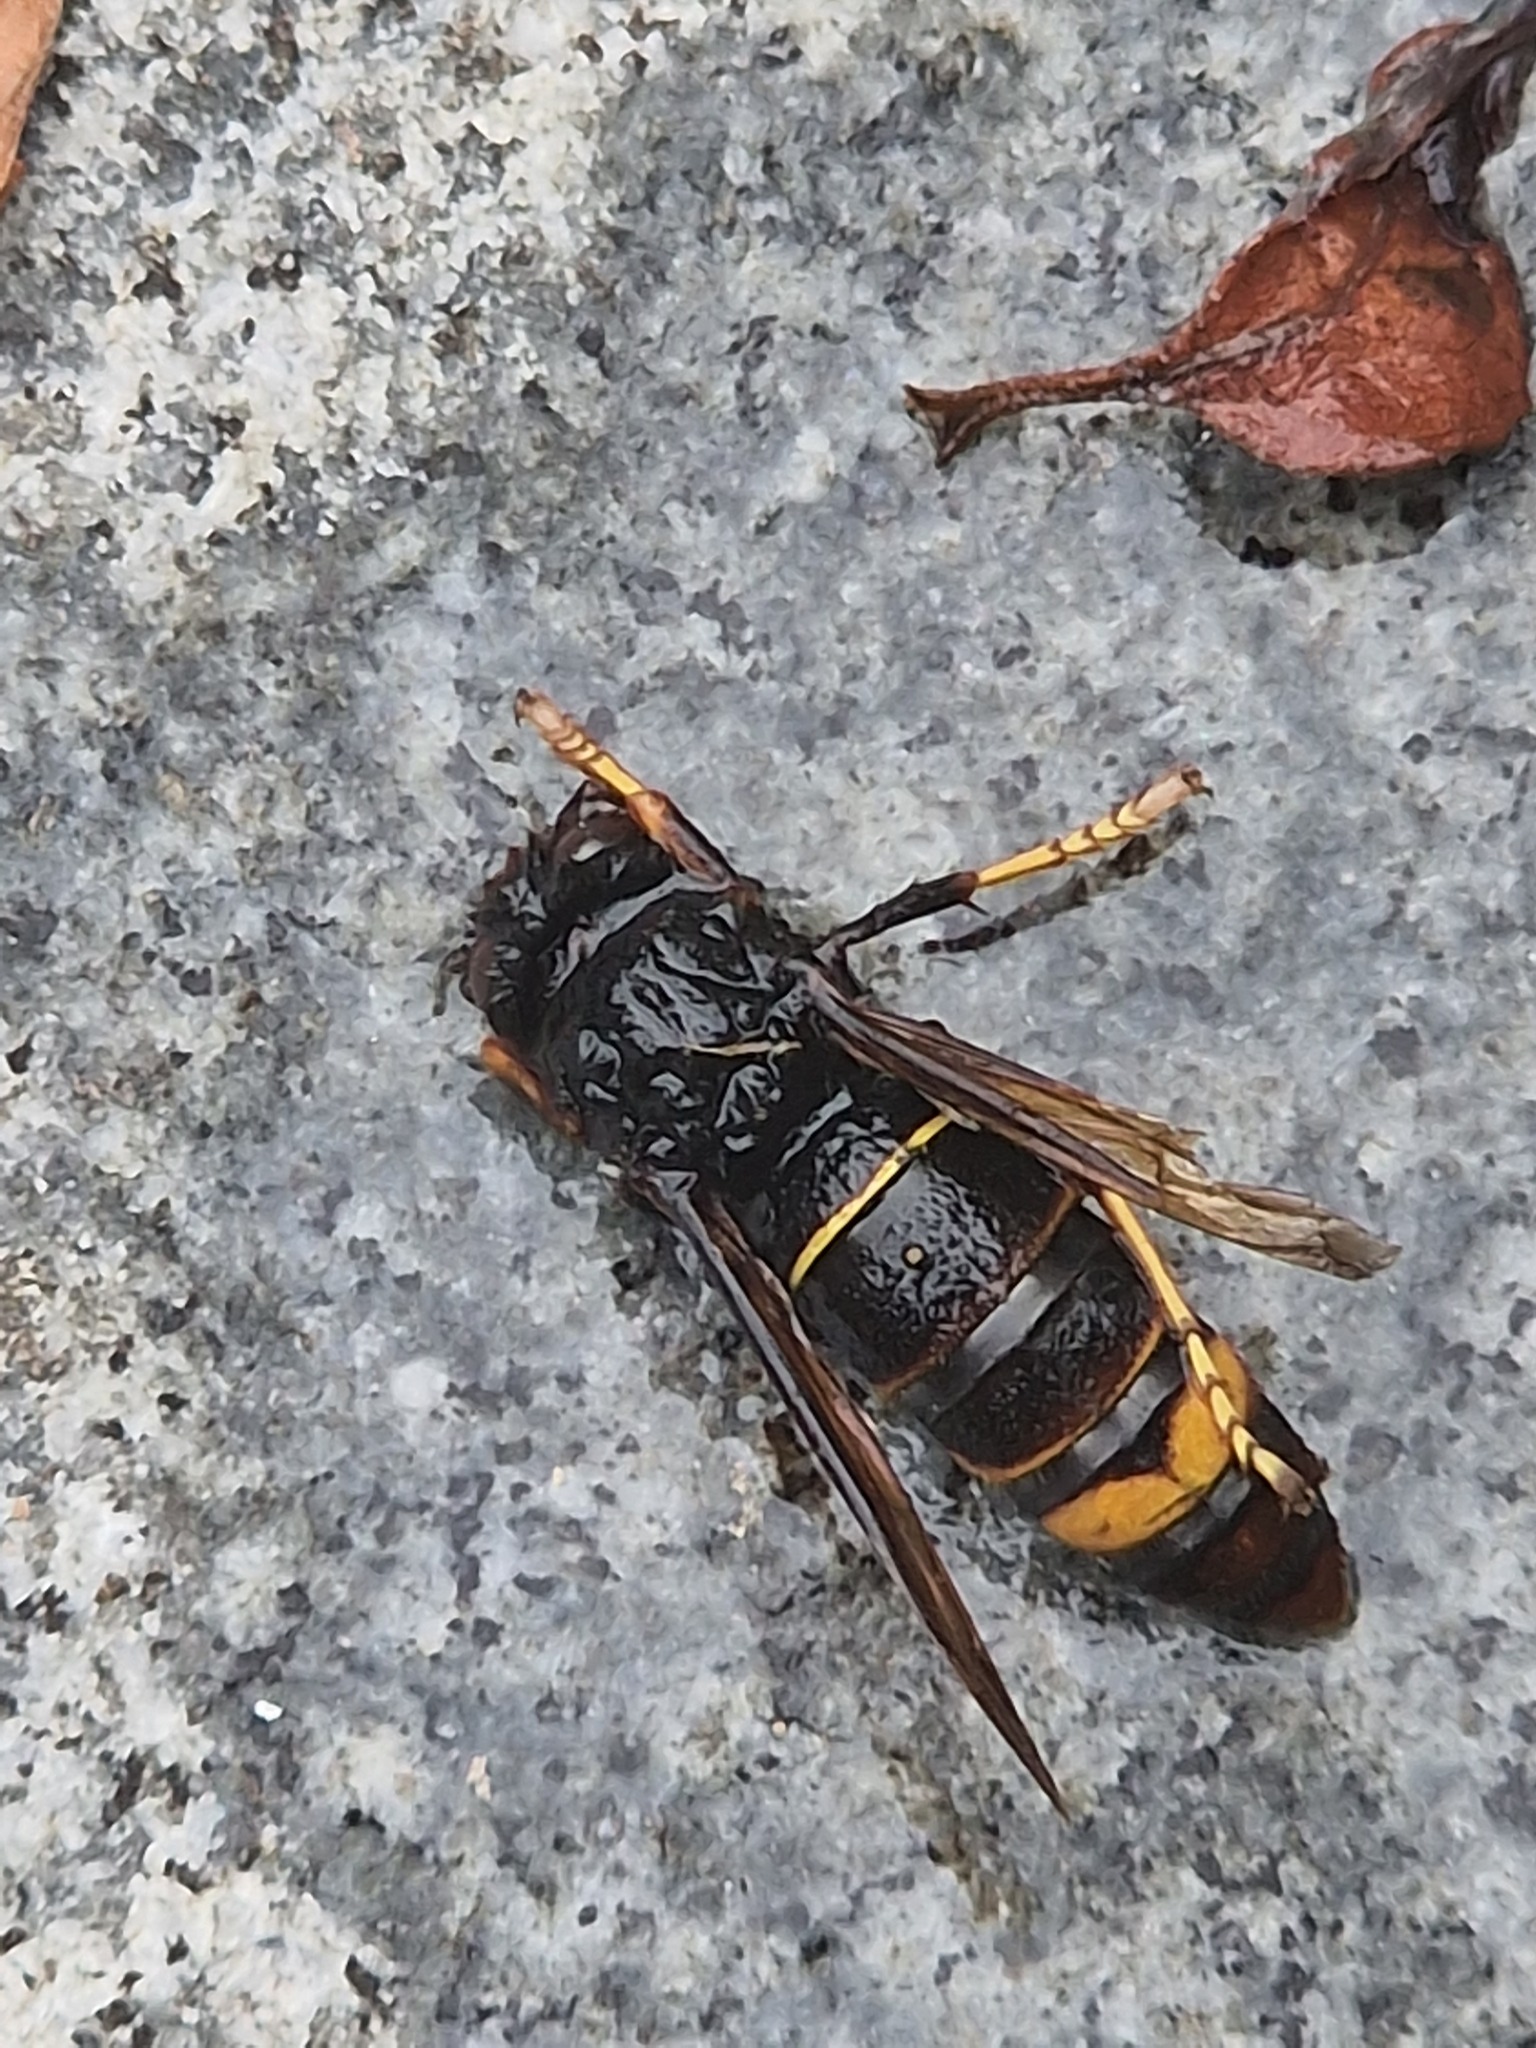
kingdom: Animalia
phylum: Arthropoda
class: Insecta
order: Hymenoptera
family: Vespidae
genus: Vespa
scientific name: Vespa velutina
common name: Asian hornet
